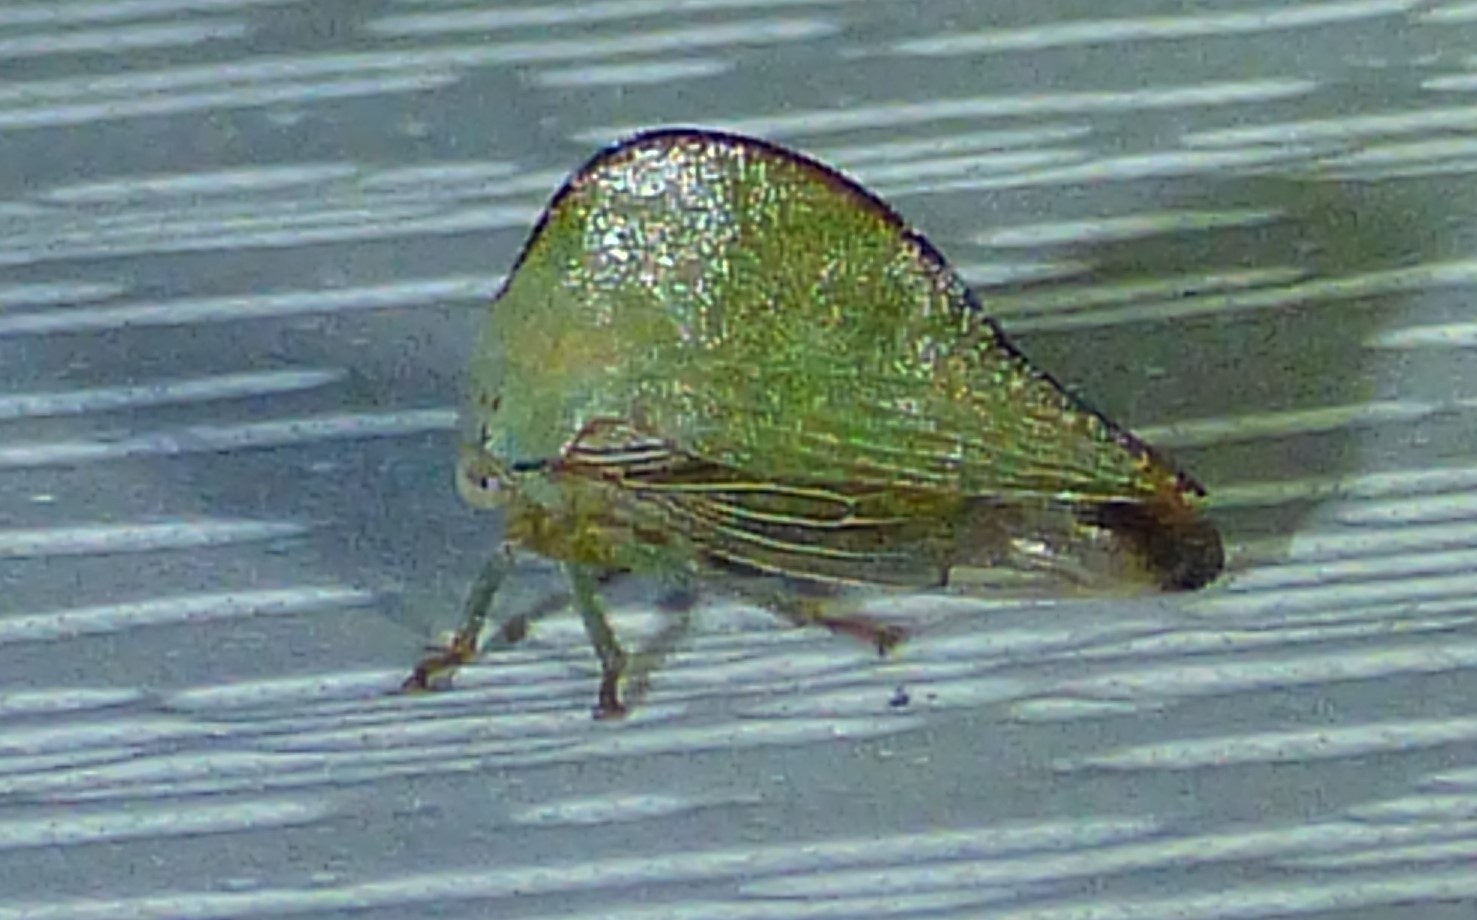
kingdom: Animalia
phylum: Arthropoda
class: Insecta
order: Hemiptera
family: Membracidae
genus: Archasia
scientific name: Archasia pallida
